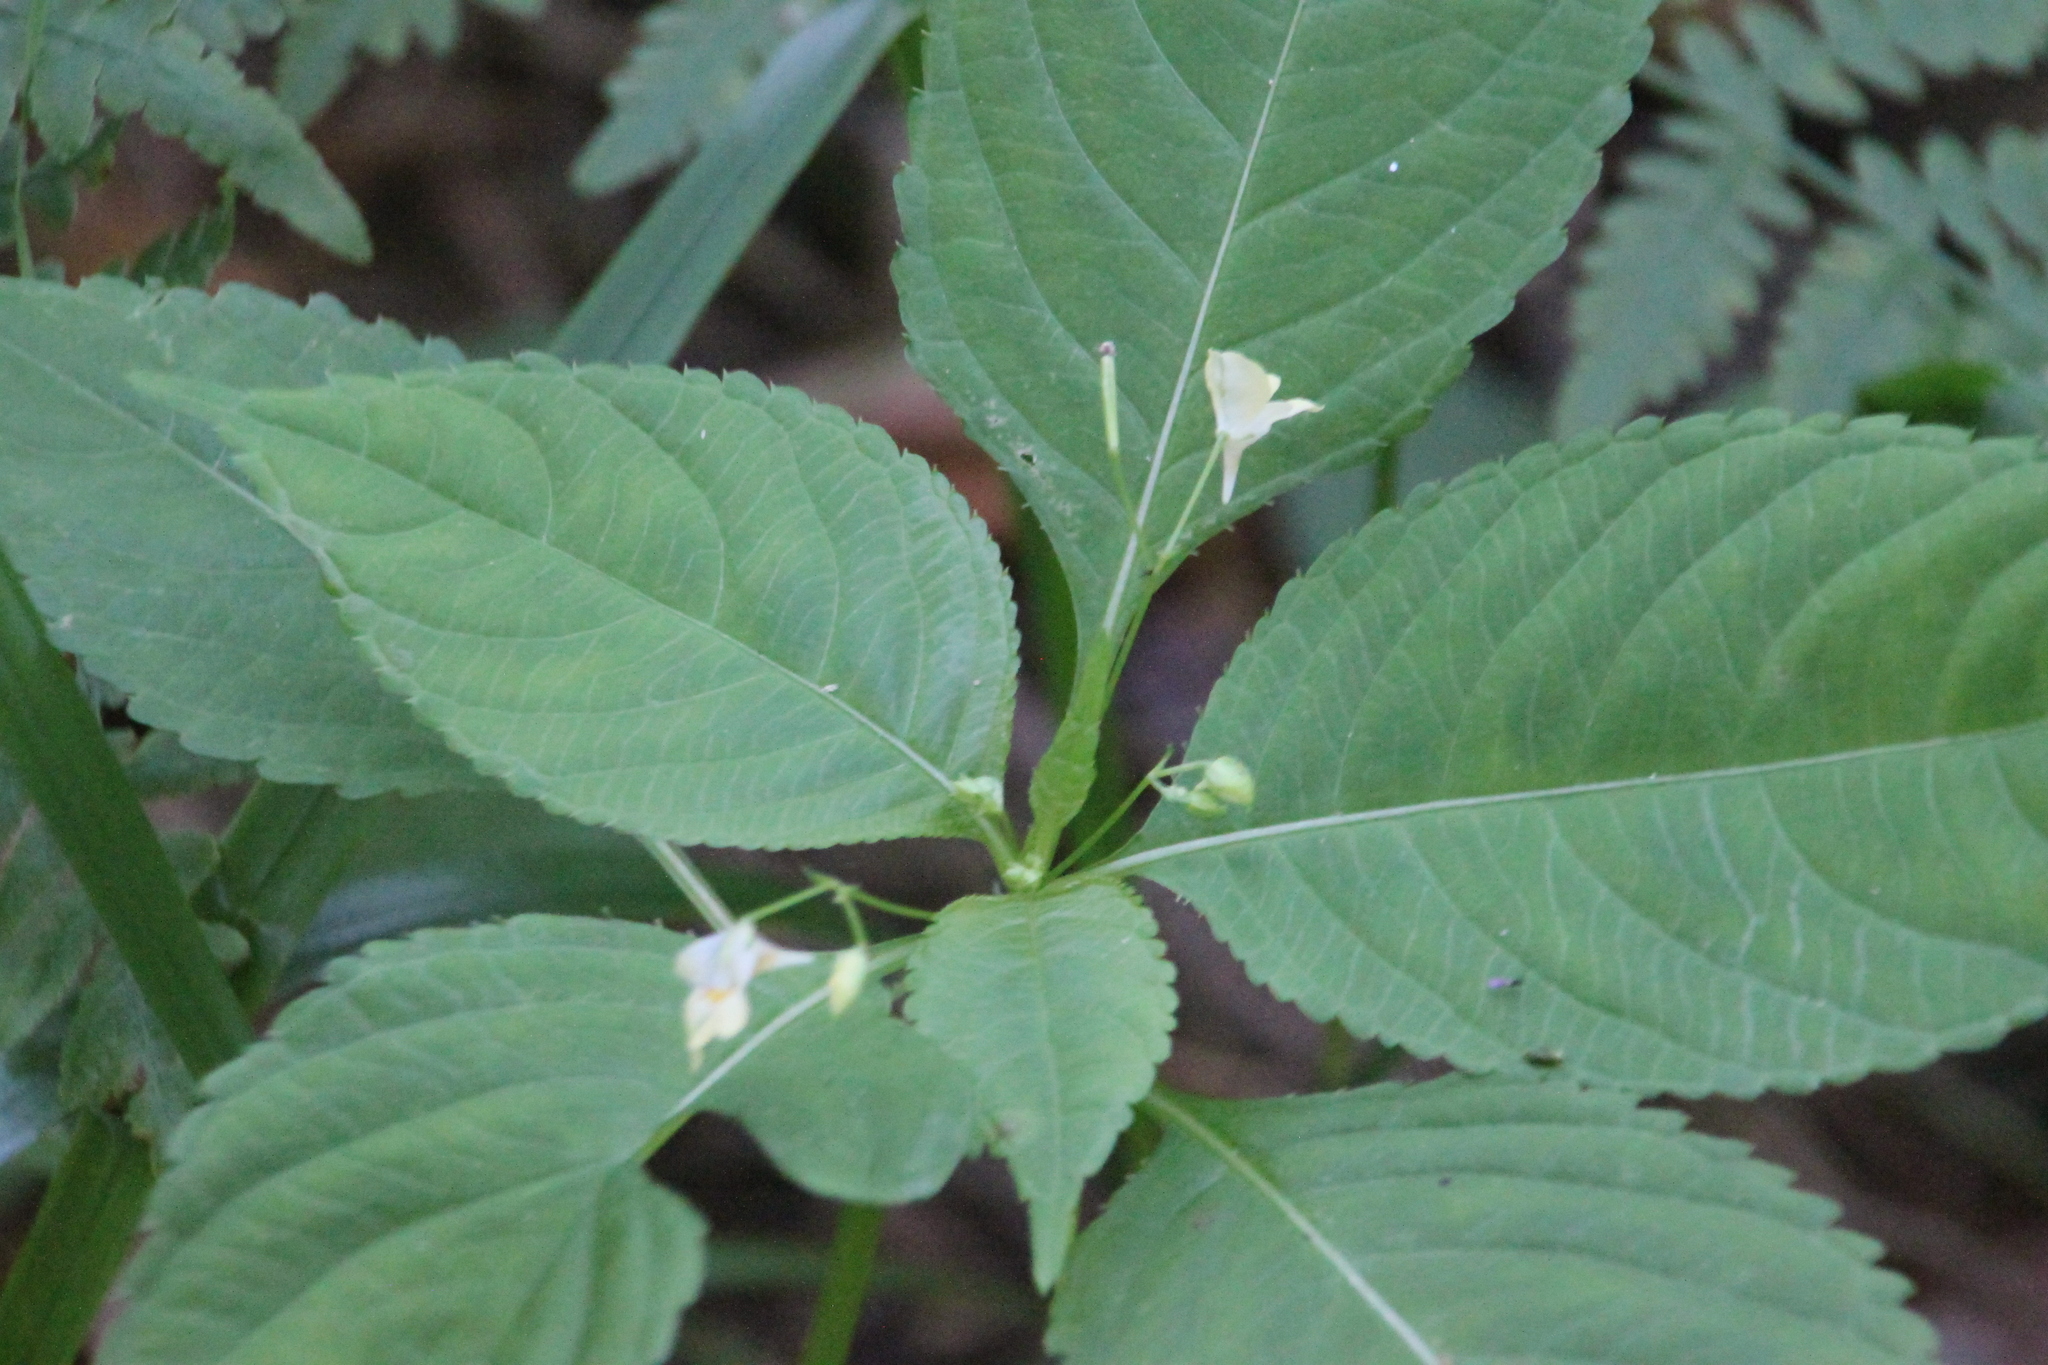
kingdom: Plantae
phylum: Tracheophyta
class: Magnoliopsida
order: Ericales
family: Balsaminaceae
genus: Impatiens
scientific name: Impatiens parviflora
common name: Small balsam
